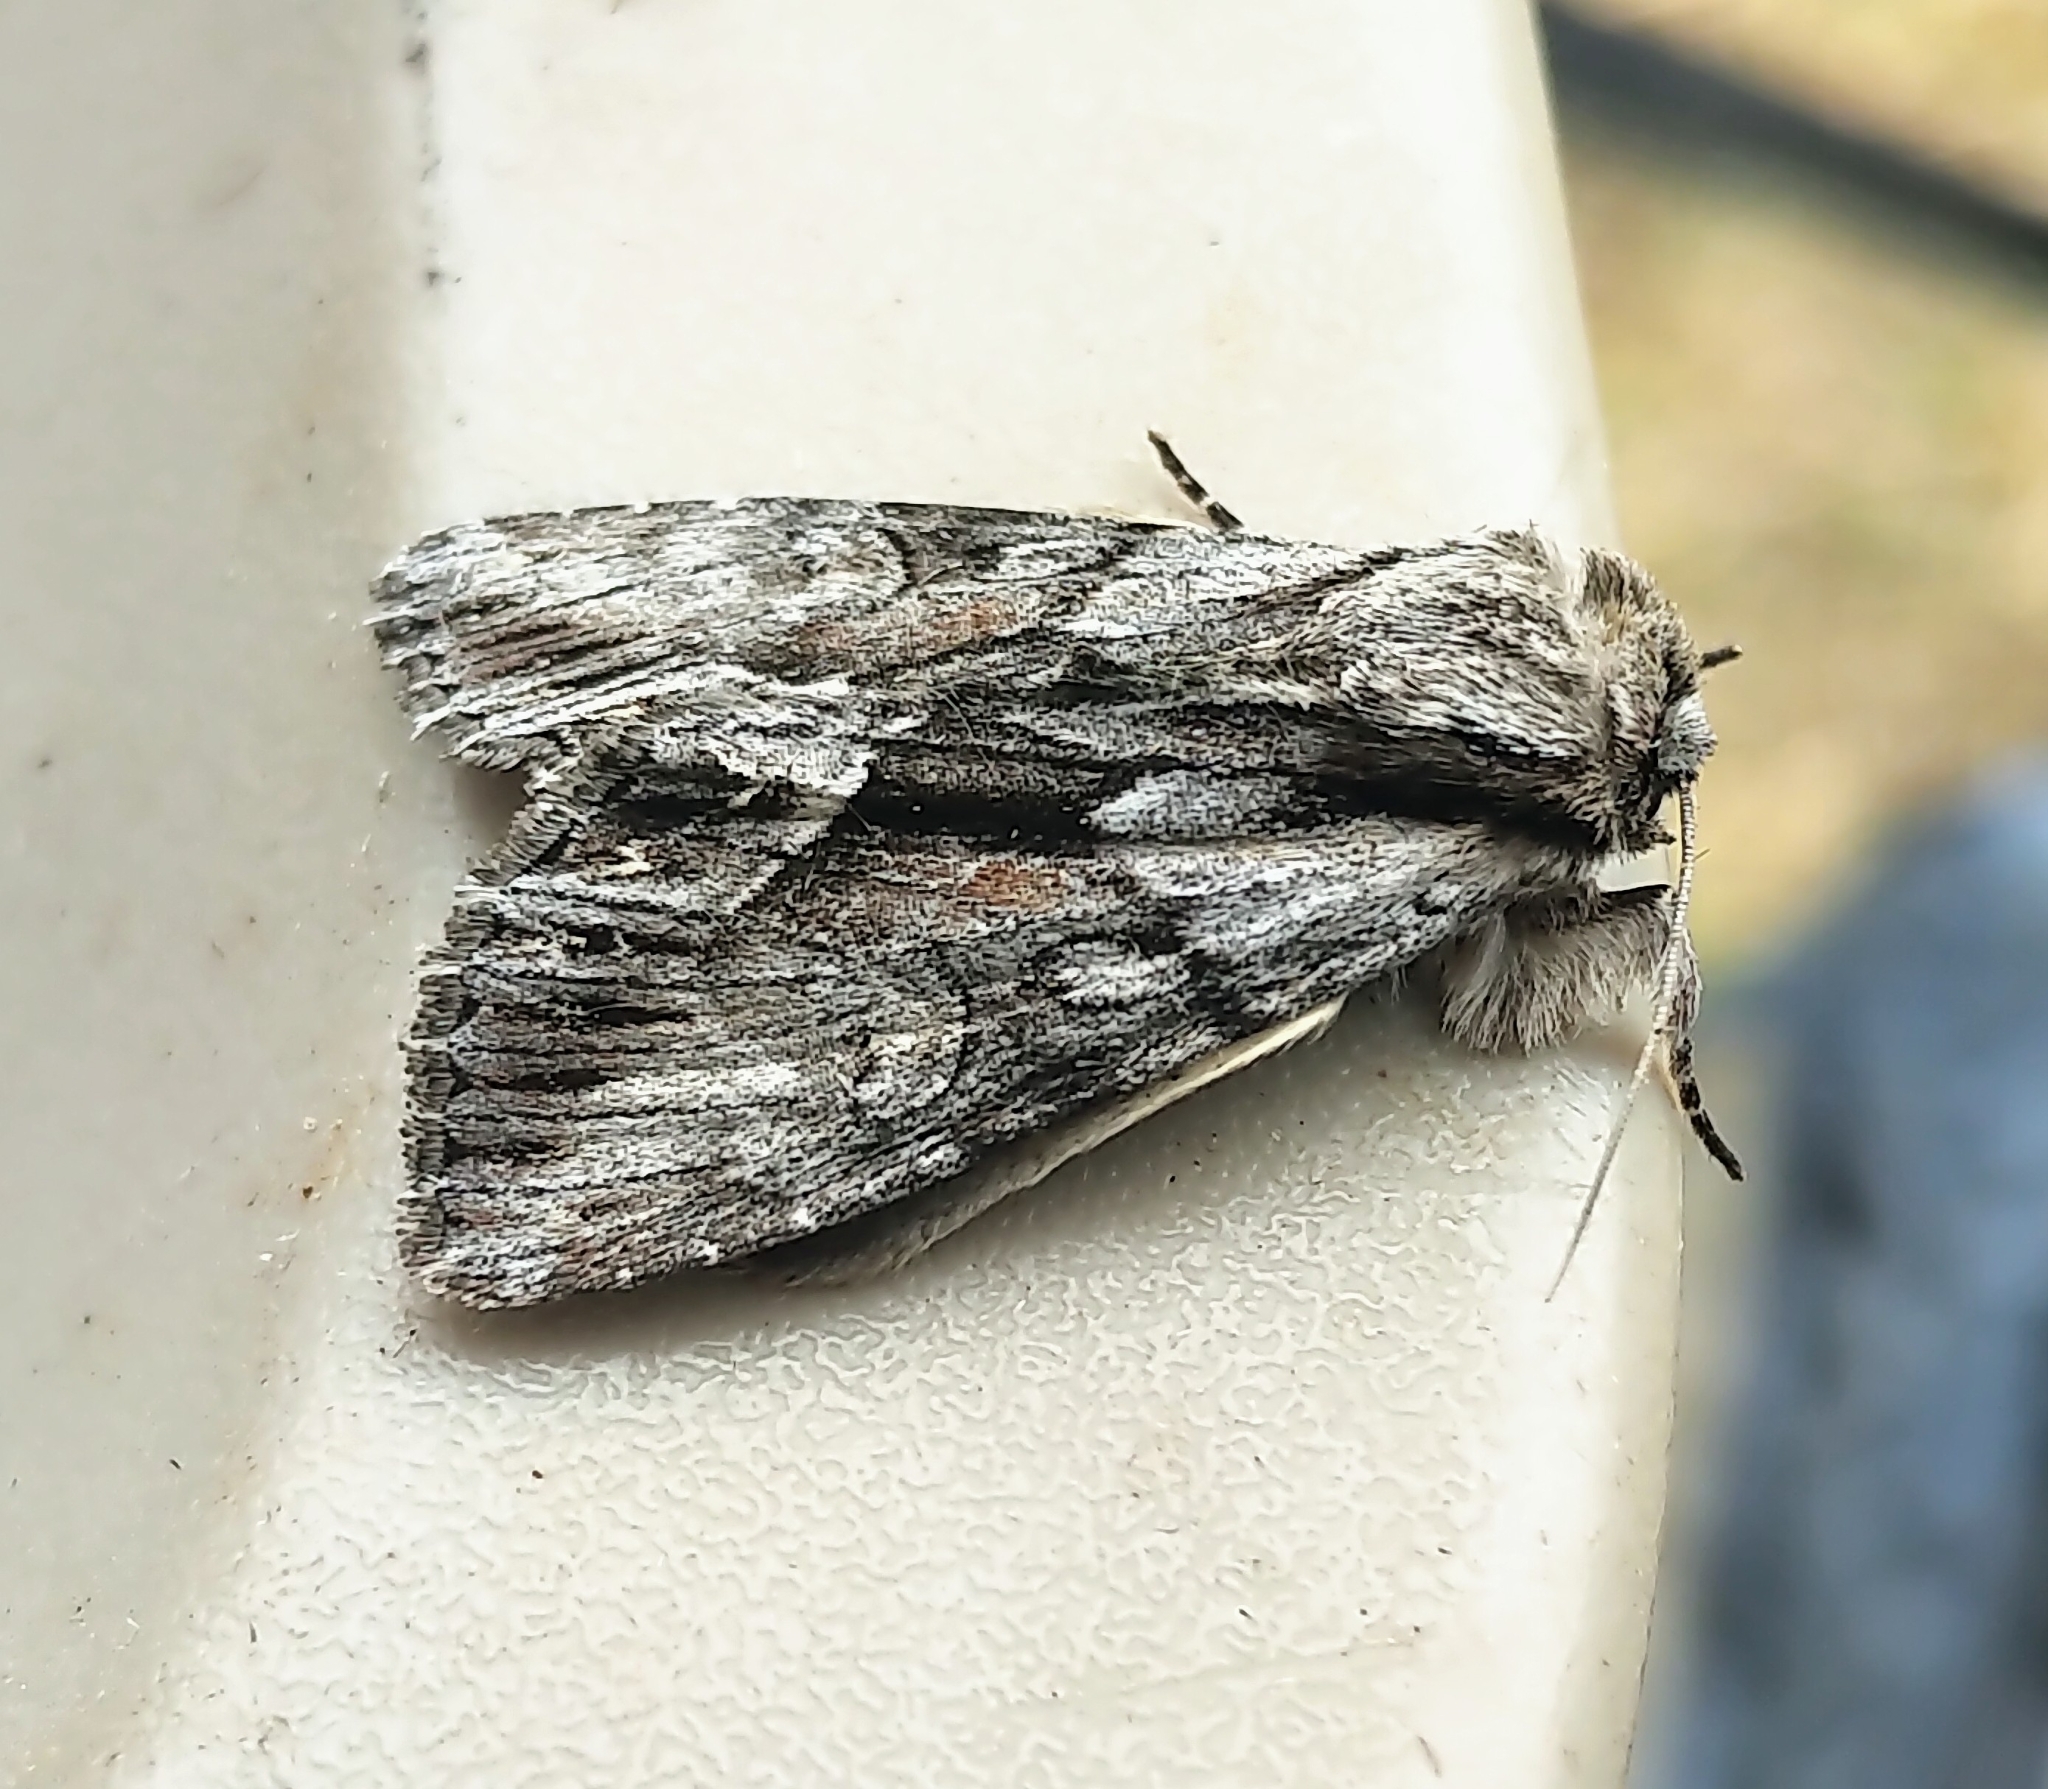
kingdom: Animalia
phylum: Arthropoda
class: Insecta
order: Lepidoptera
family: Noctuidae
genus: Hyppa
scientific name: Hyppa contrasta
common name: Summer hyppa moth
